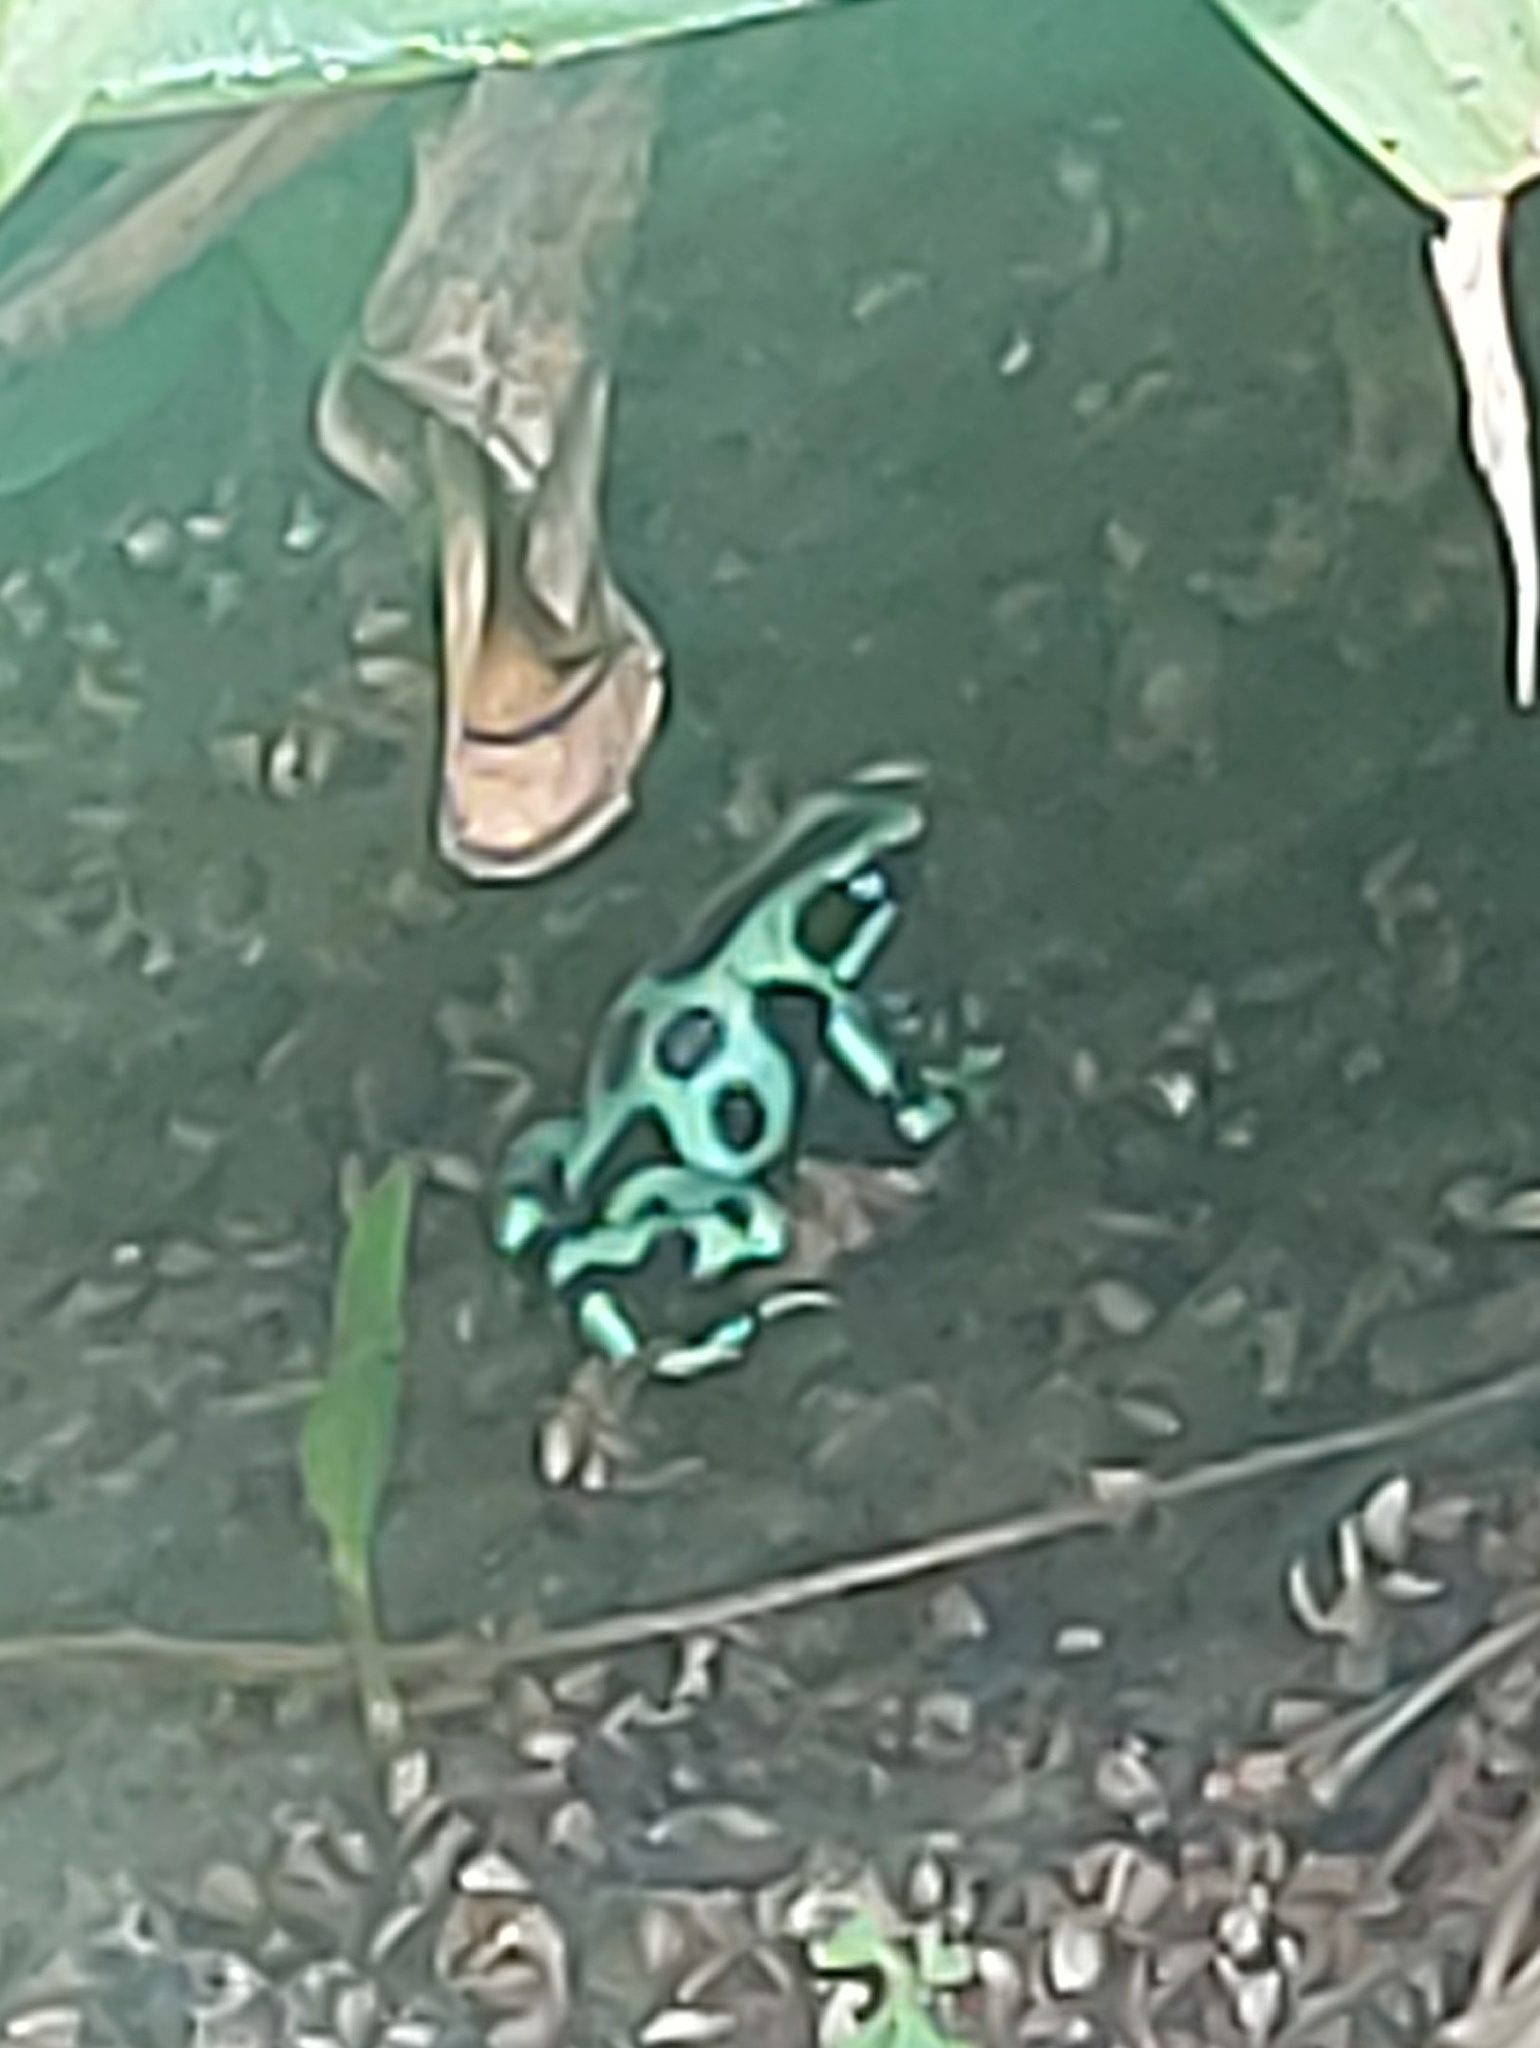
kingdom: Animalia
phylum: Chordata
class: Amphibia
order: Anura
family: Dendrobatidae
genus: Dendrobates
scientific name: Dendrobates auratus
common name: Green and black poison dart frog
